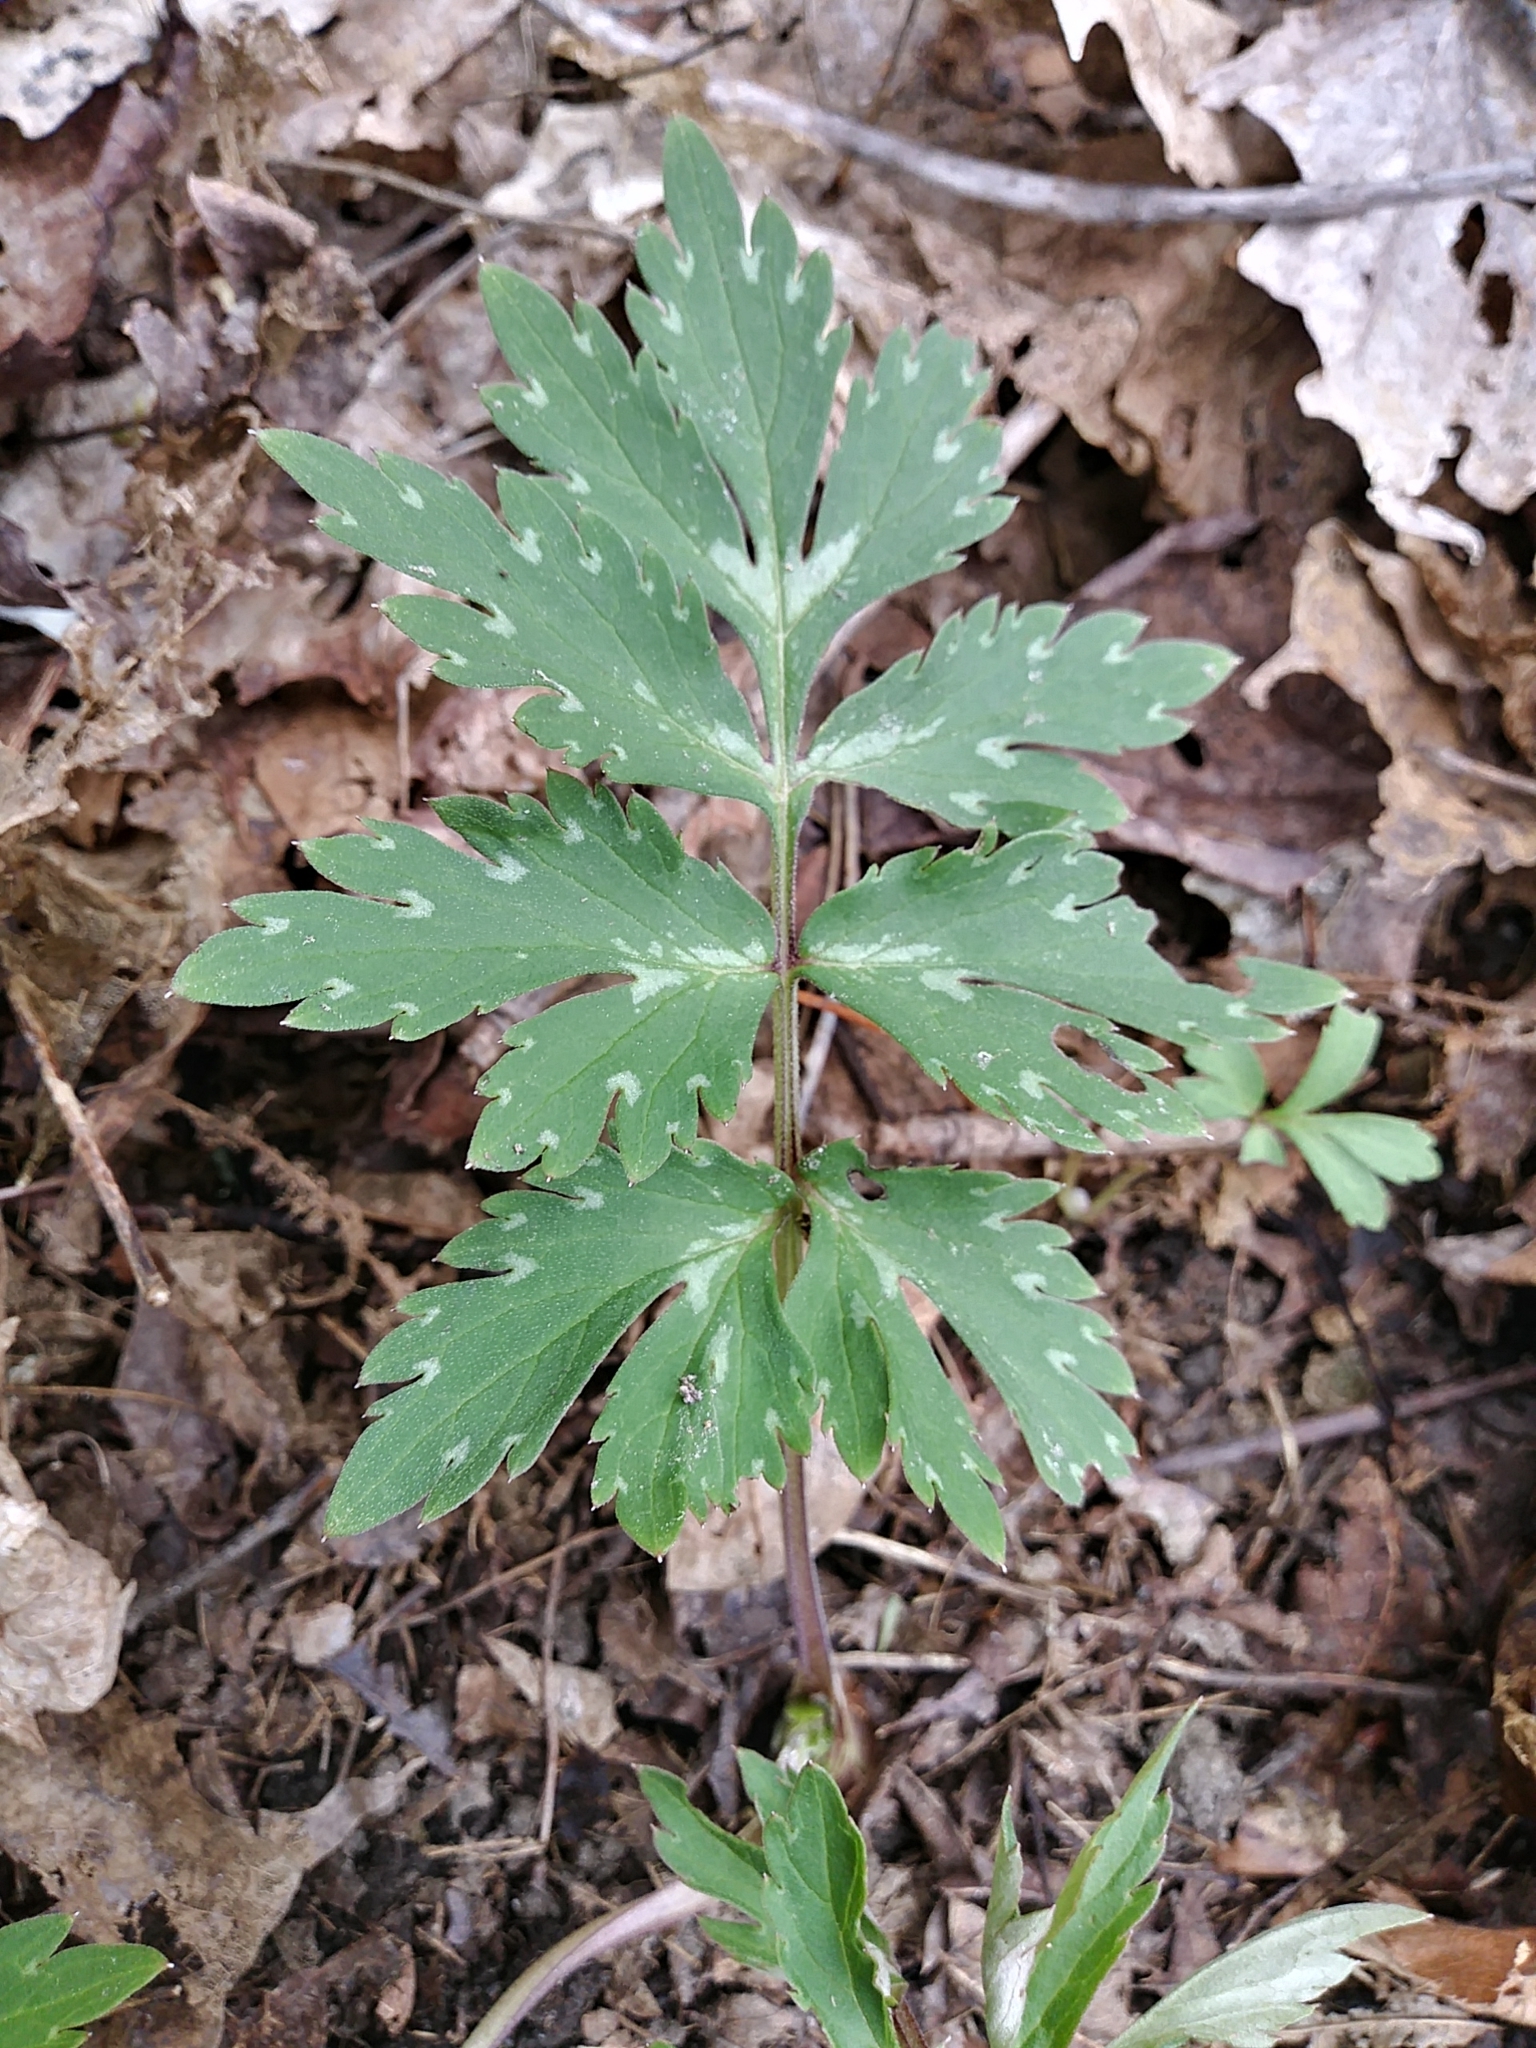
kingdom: Plantae
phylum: Tracheophyta
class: Magnoliopsida
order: Boraginales
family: Hydrophyllaceae
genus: Hydrophyllum
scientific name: Hydrophyllum virginianum
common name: Virginia waterleaf
